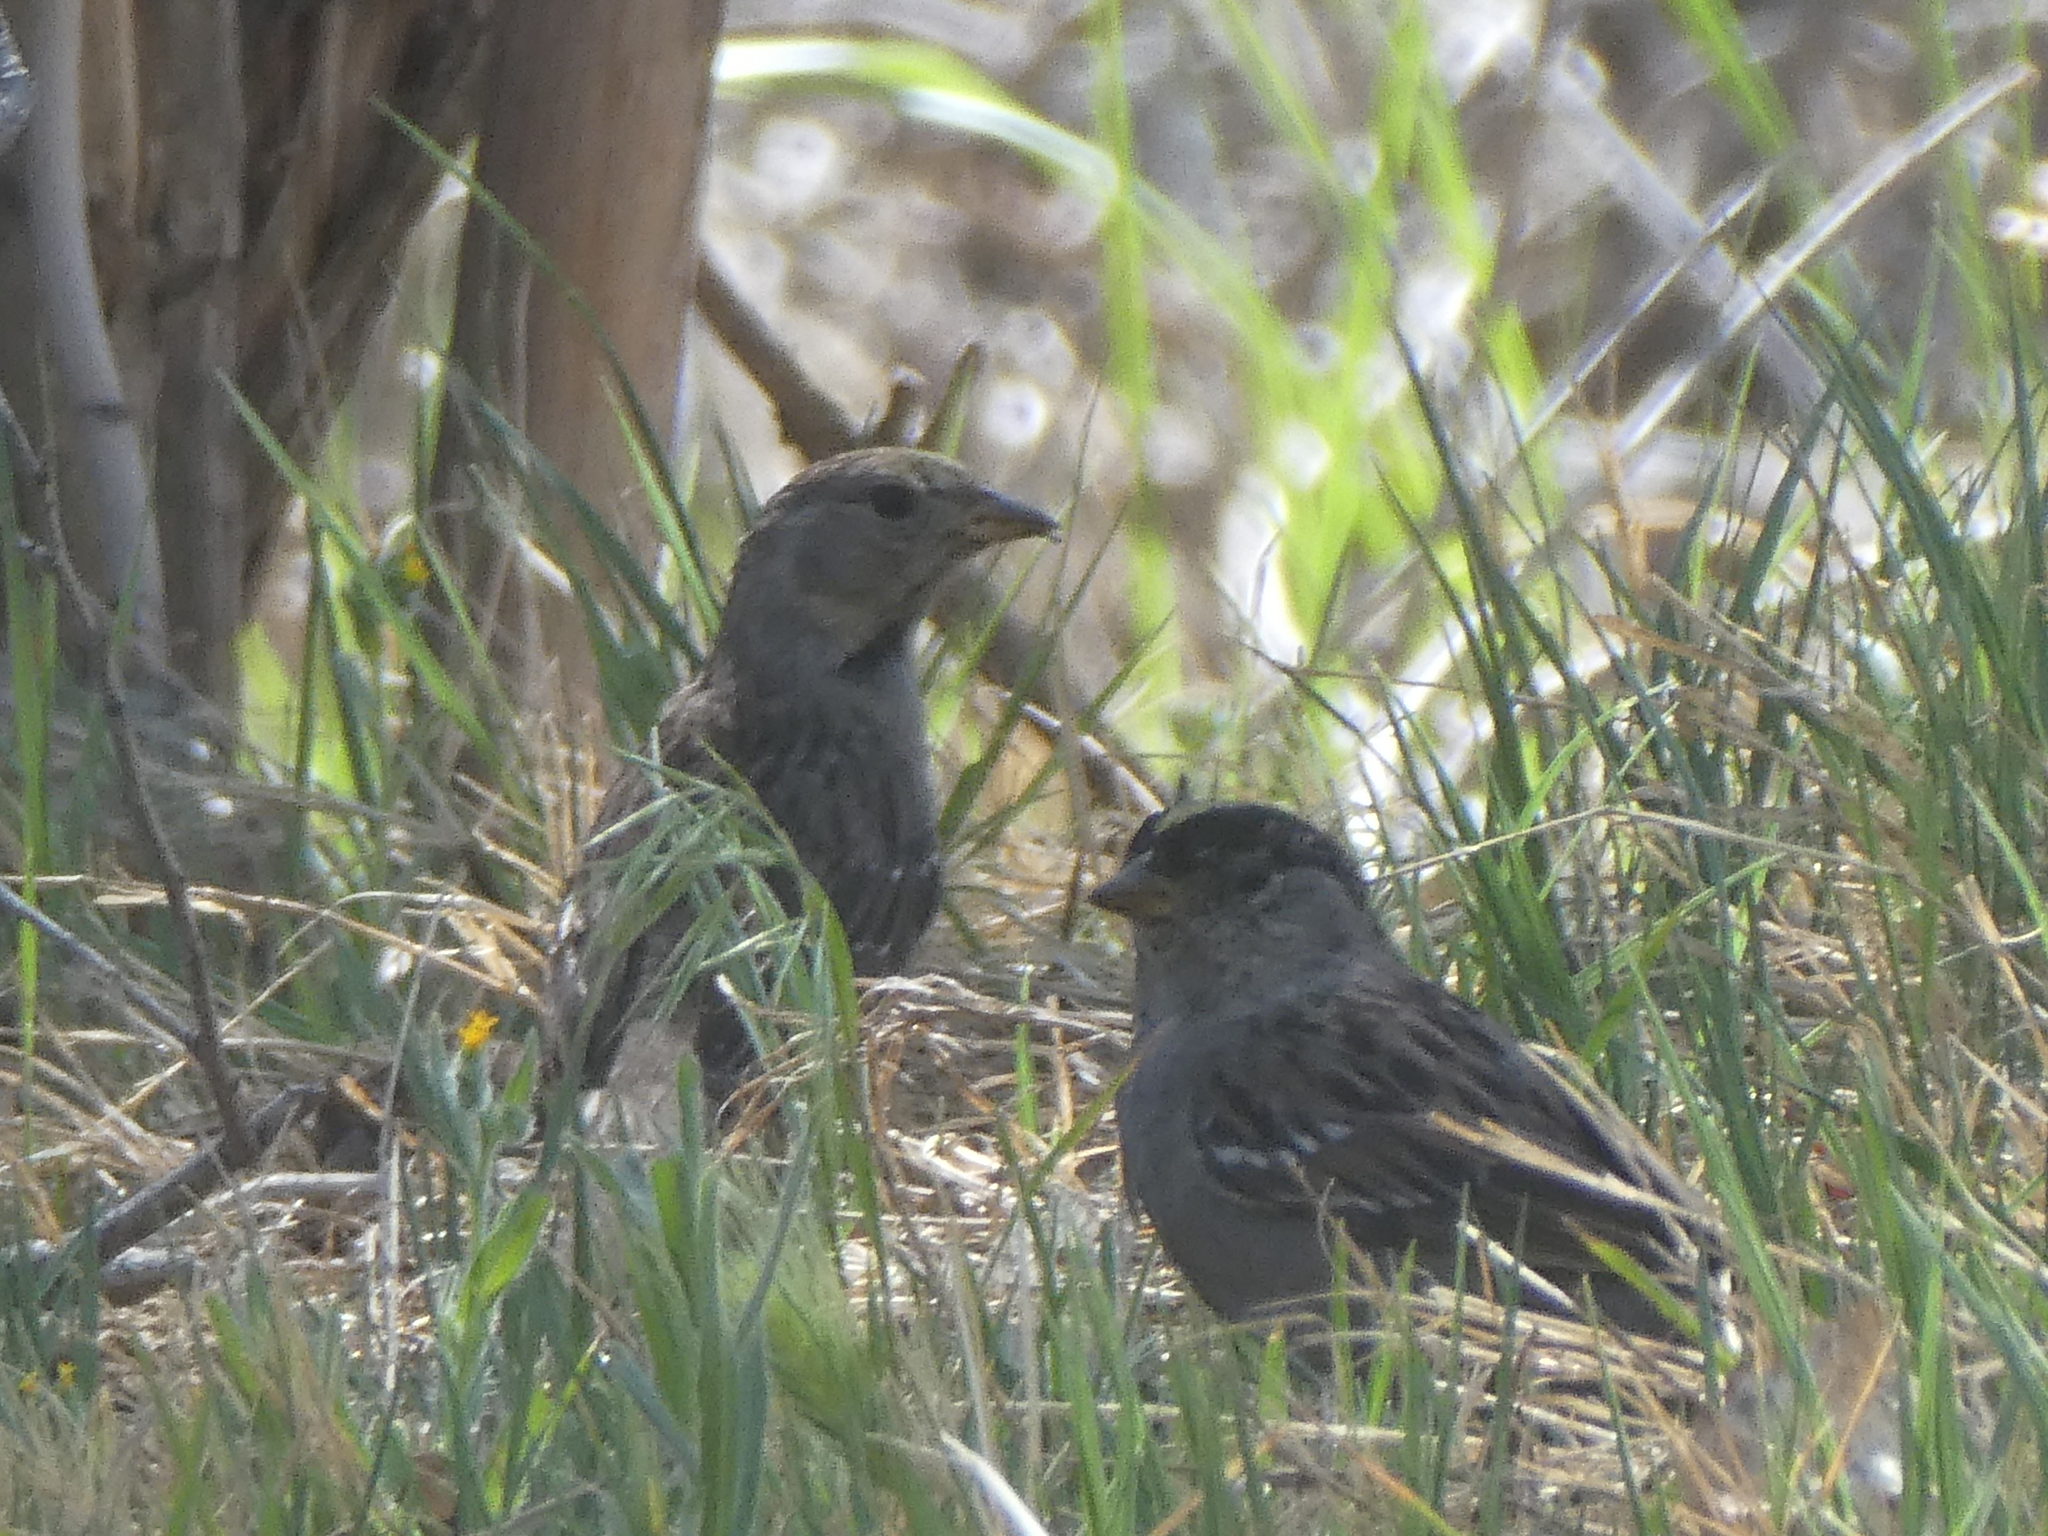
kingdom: Animalia
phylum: Chordata
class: Aves
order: Passeriformes
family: Passerellidae
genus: Zonotrichia
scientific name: Zonotrichia atricapilla
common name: Golden-crowned sparrow
